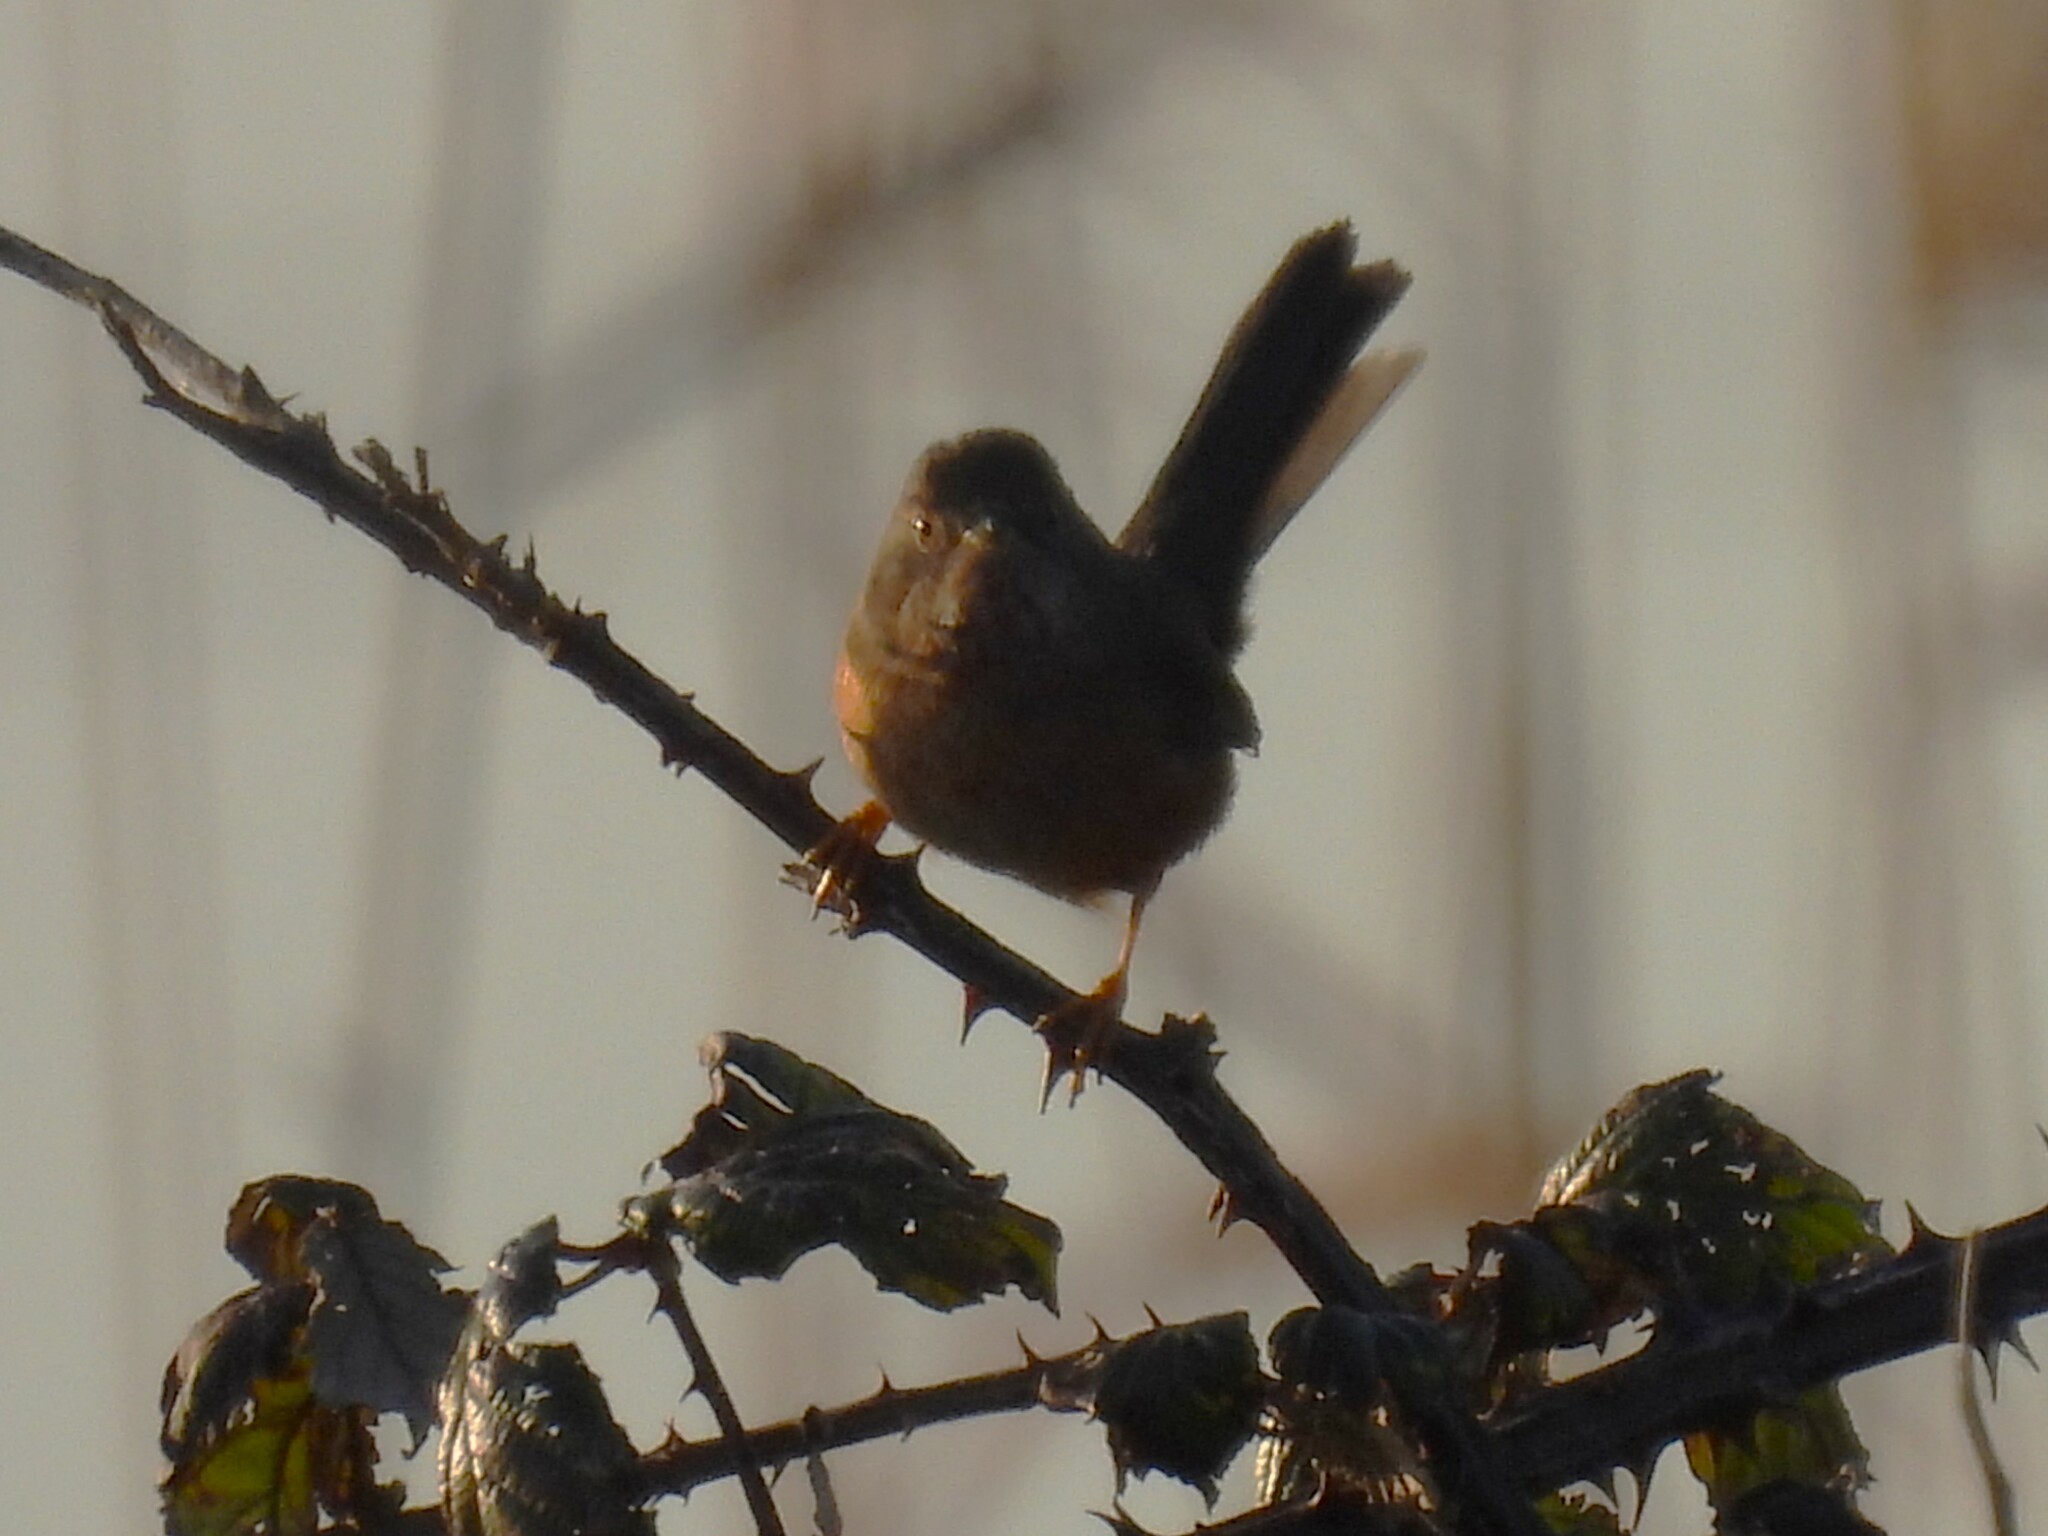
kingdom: Animalia
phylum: Chordata
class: Aves
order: Passeriformes
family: Sylviidae
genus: Sylvia
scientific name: Sylvia undata
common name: Dartford warbler
